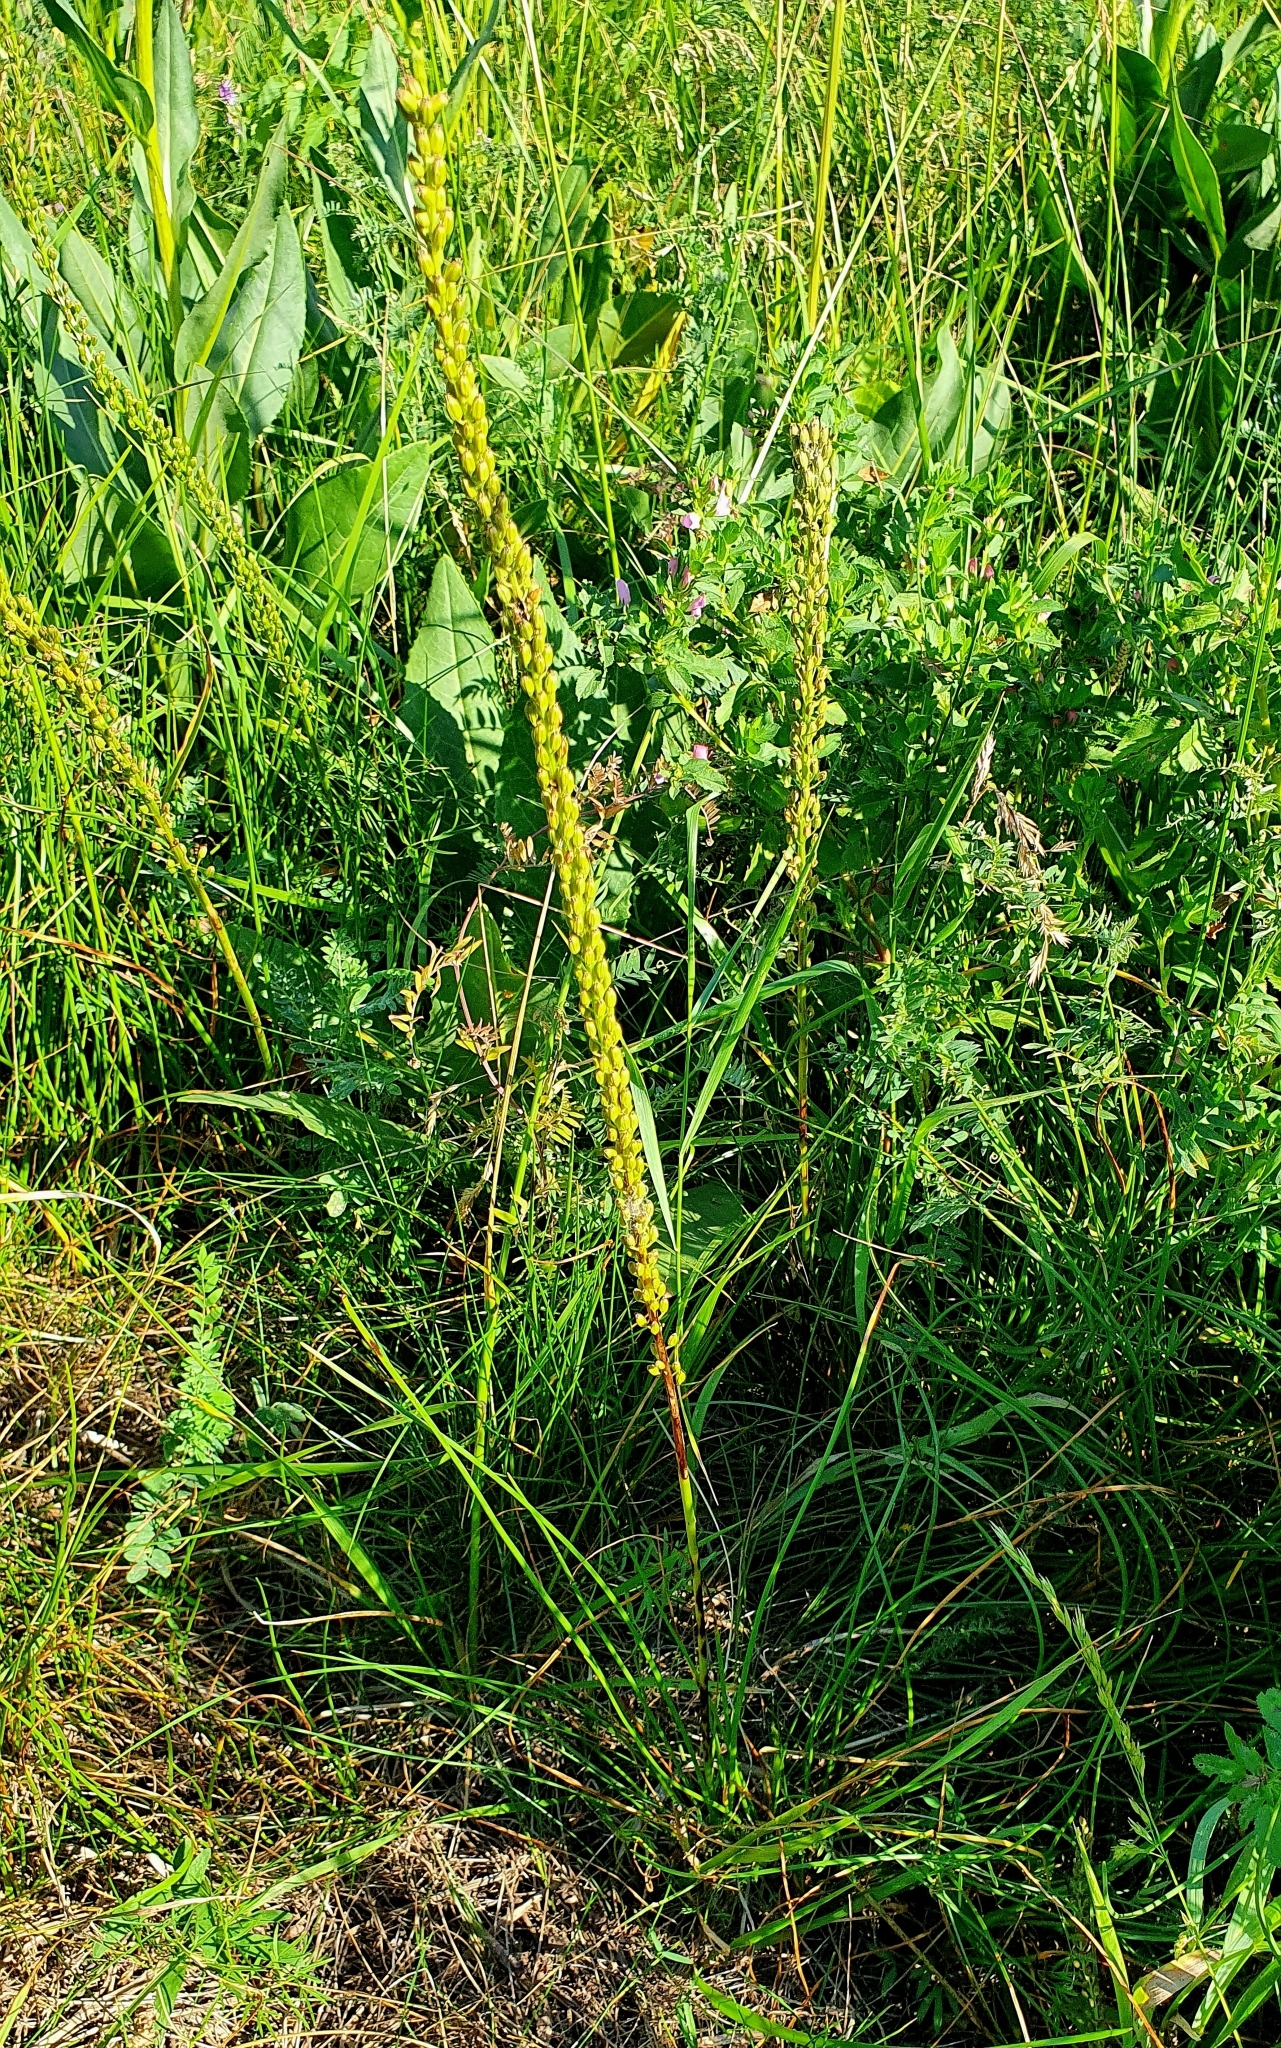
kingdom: Plantae
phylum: Tracheophyta
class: Liliopsida
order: Alismatales
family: Juncaginaceae
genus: Triglochin
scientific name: Triglochin maritima
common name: Sea arrowgrass
